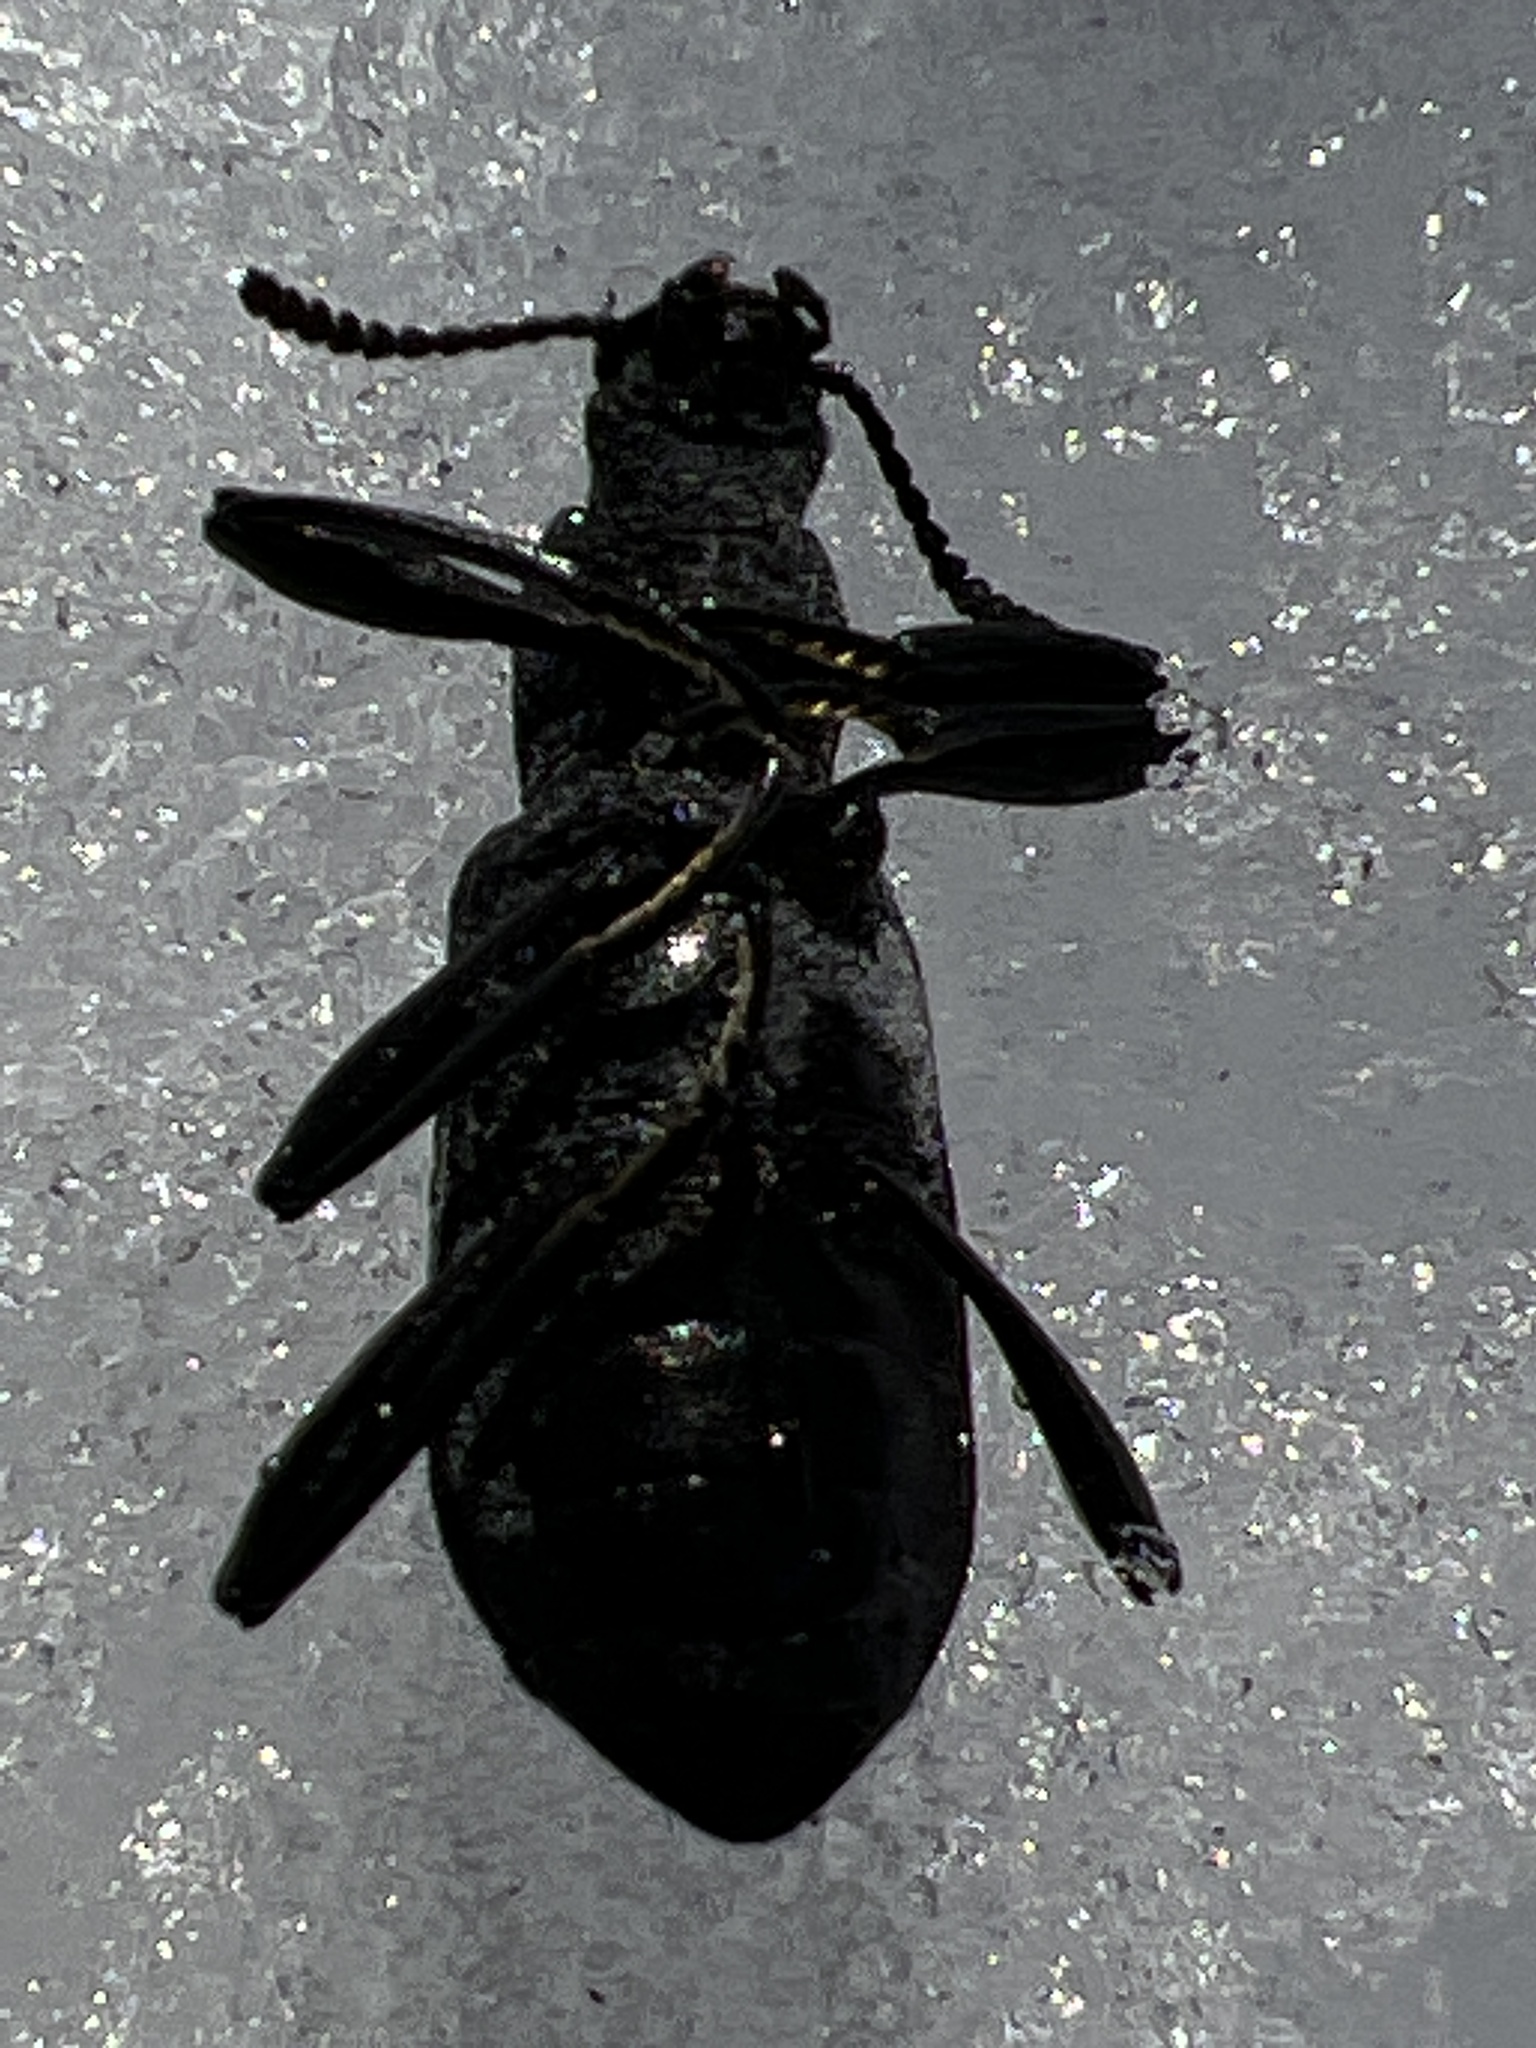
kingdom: Animalia
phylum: Arthropoda
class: Insecta
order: Coleoptera
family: Tenebrionidae
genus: Upis
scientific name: Upis ceramboides
